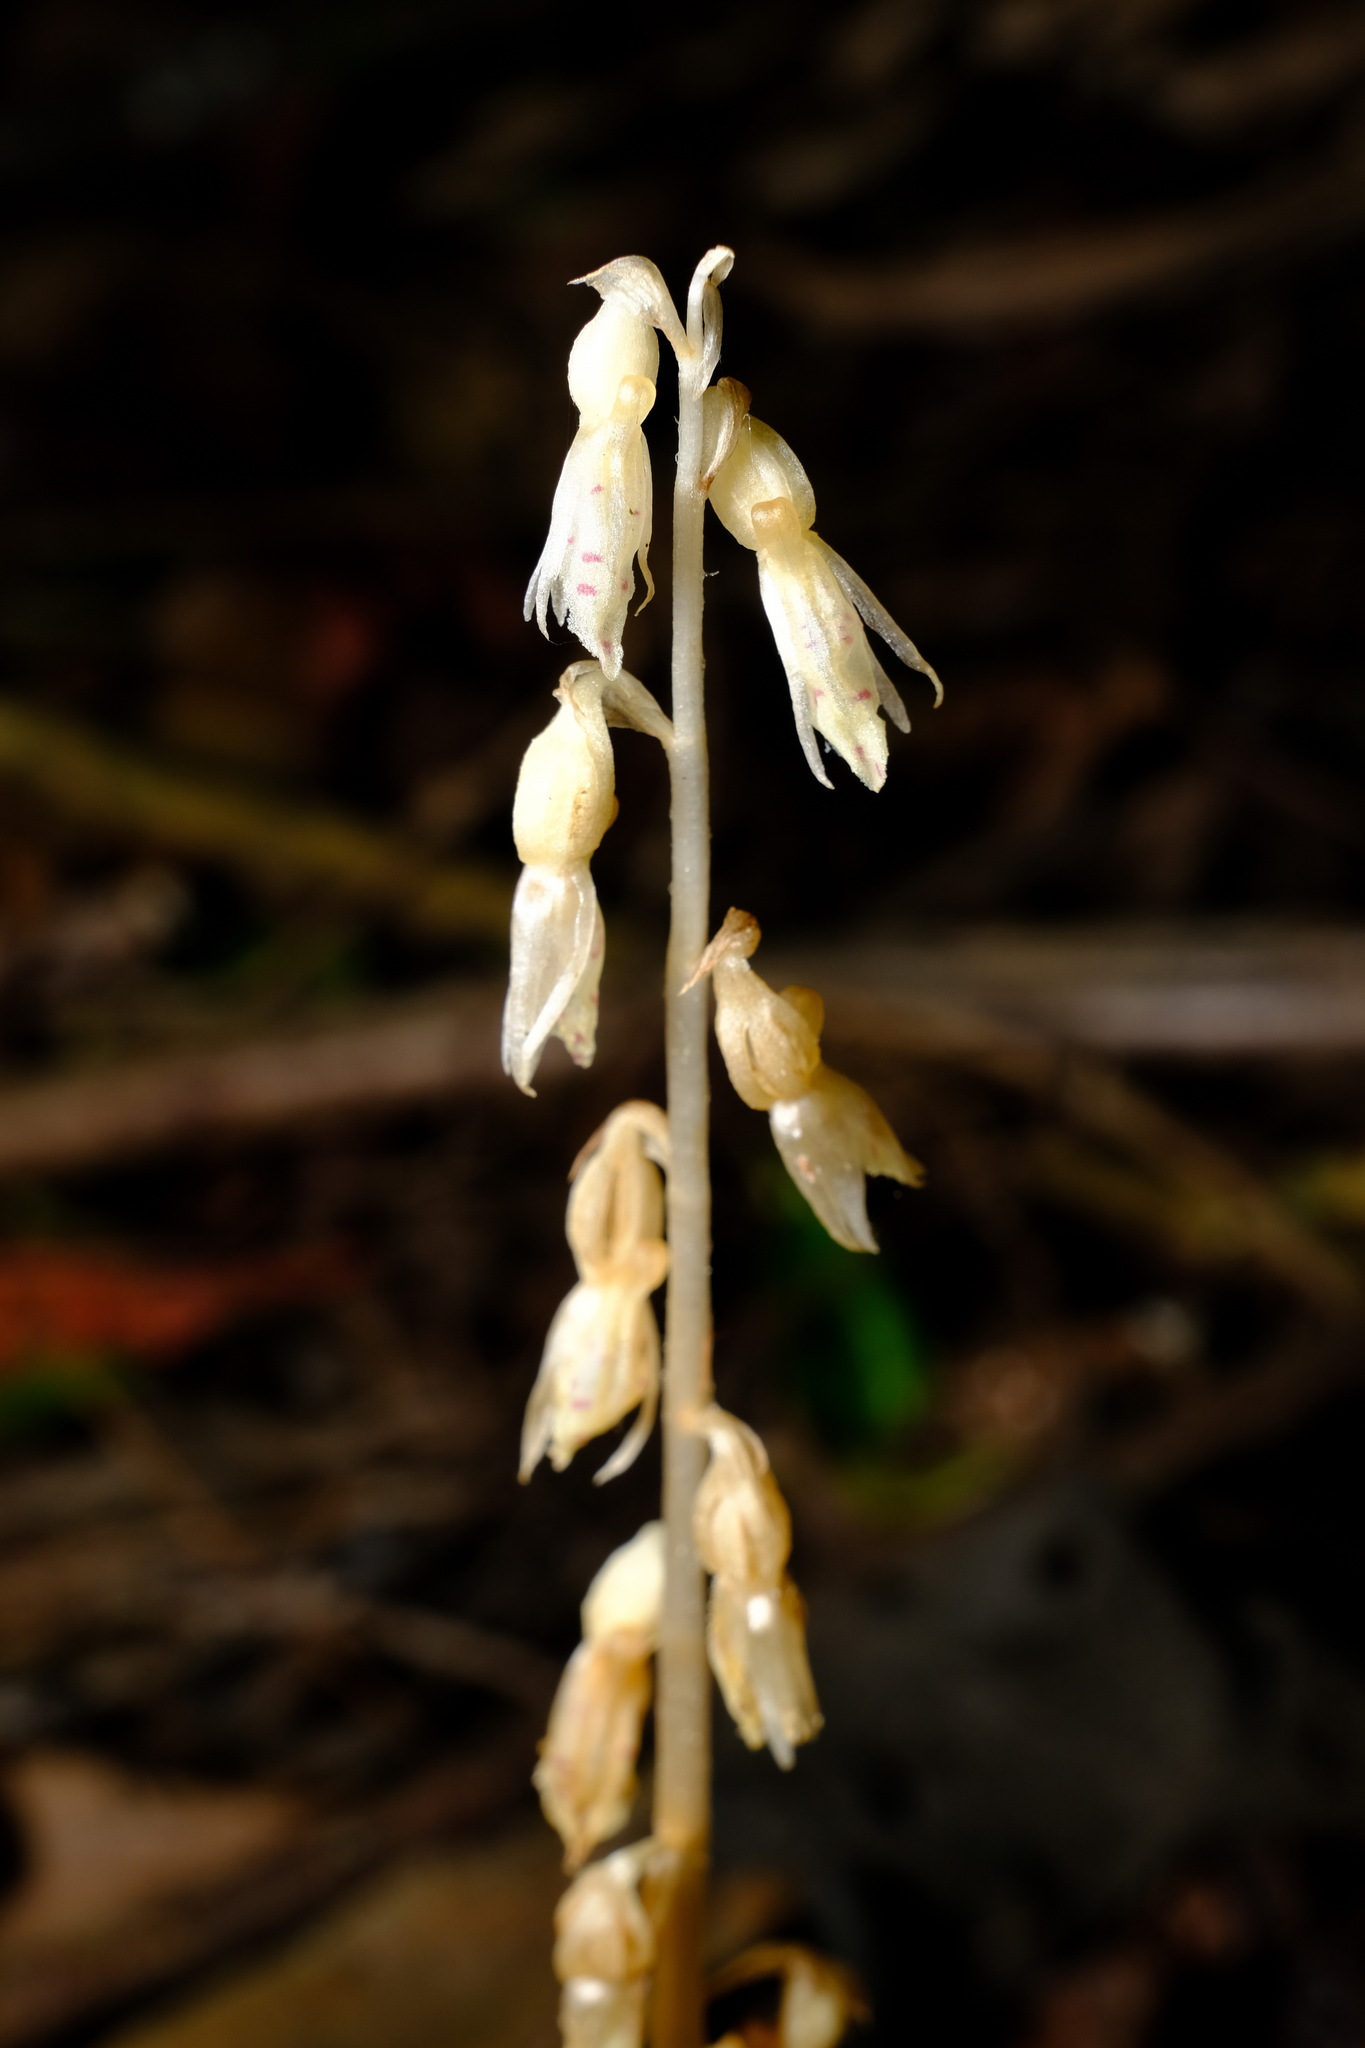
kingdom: Plantae
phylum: Tracheophyta
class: Liliopsida
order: Asparagales
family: Orchidaceae
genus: Epipogium
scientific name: Epipogium roseum
